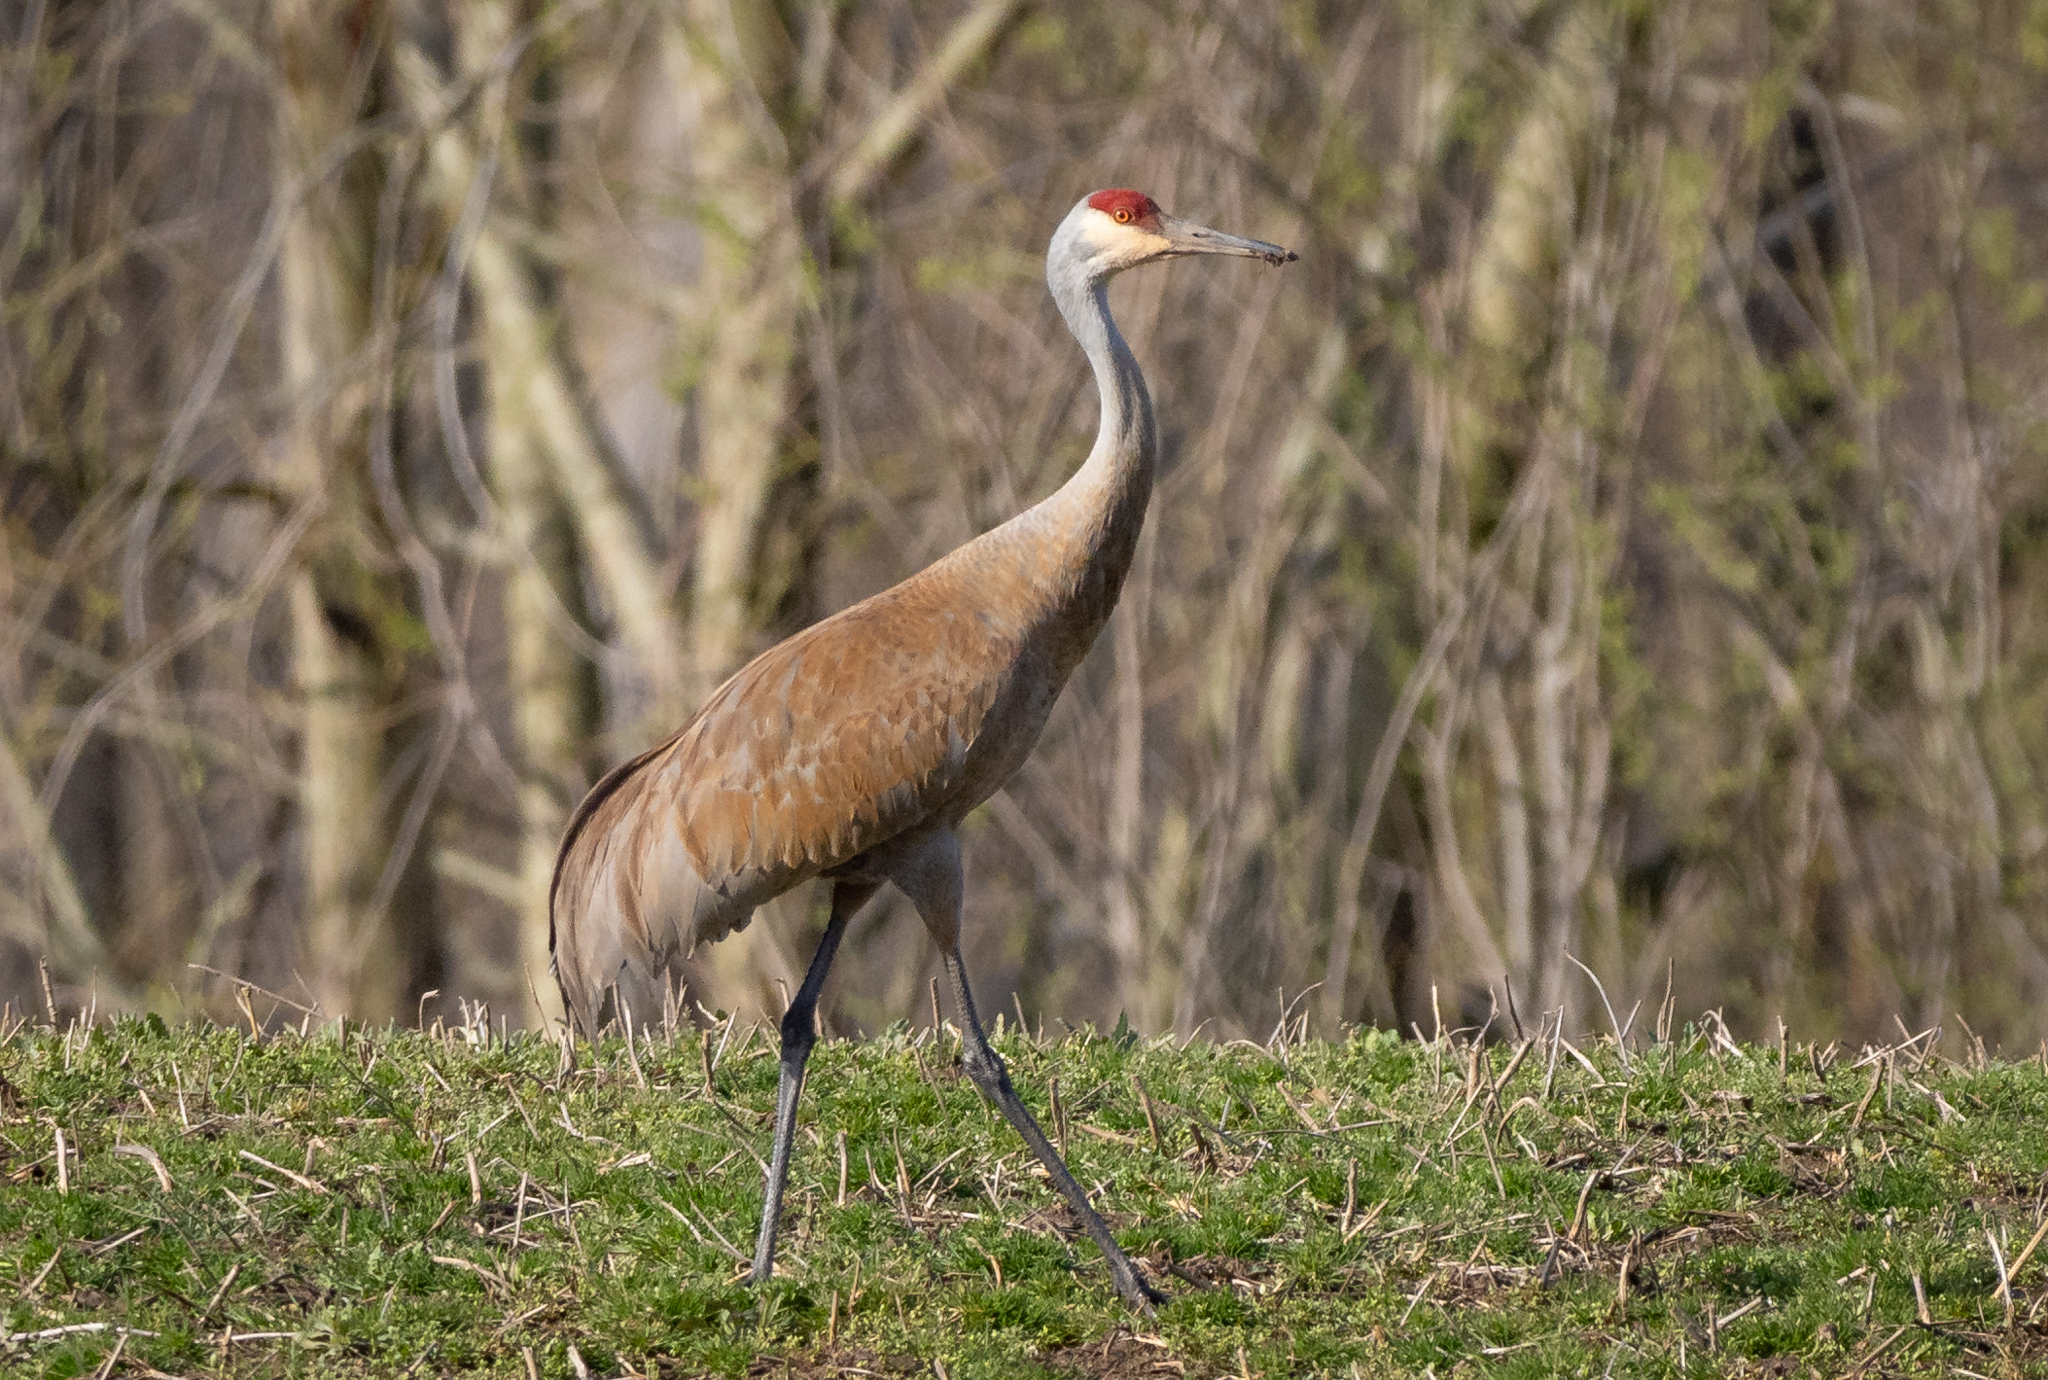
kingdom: Animalia
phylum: Chordata
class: Aves
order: Gruiformes
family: Gruidae
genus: Grus
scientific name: Grus canadensis
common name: Sandhill crane
